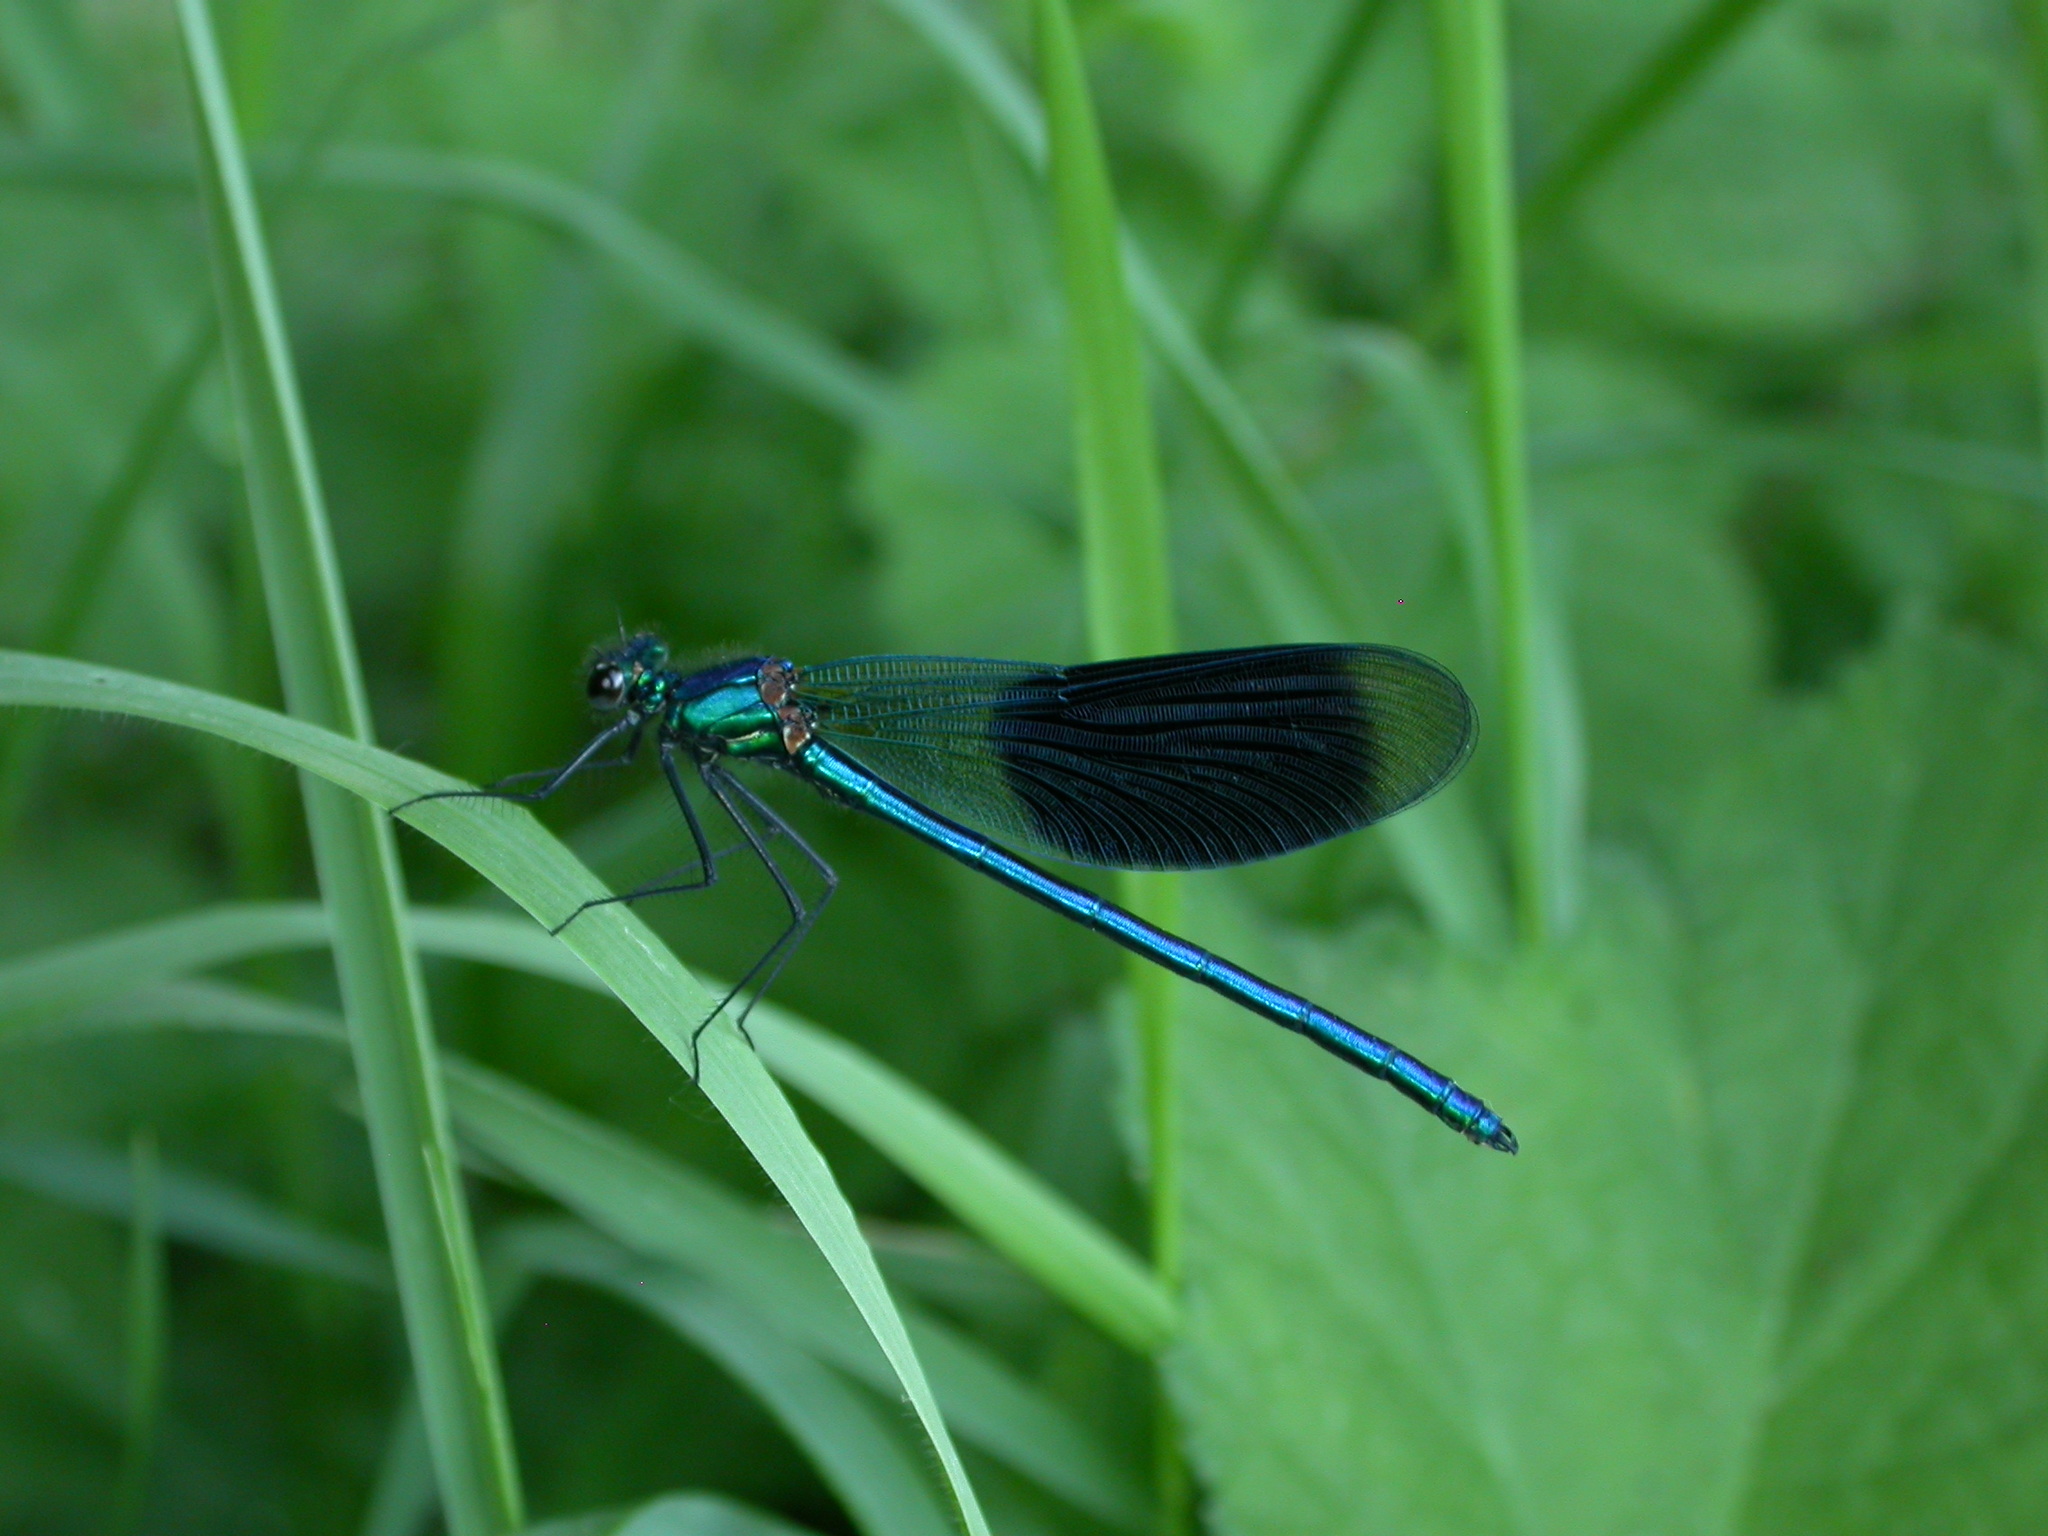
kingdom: Animalia
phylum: Arthropoda
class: Insecta
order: Odonata
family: Calopterygidae
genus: Calopteryx
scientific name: Calopteryx splendens
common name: Banded demoiselle
